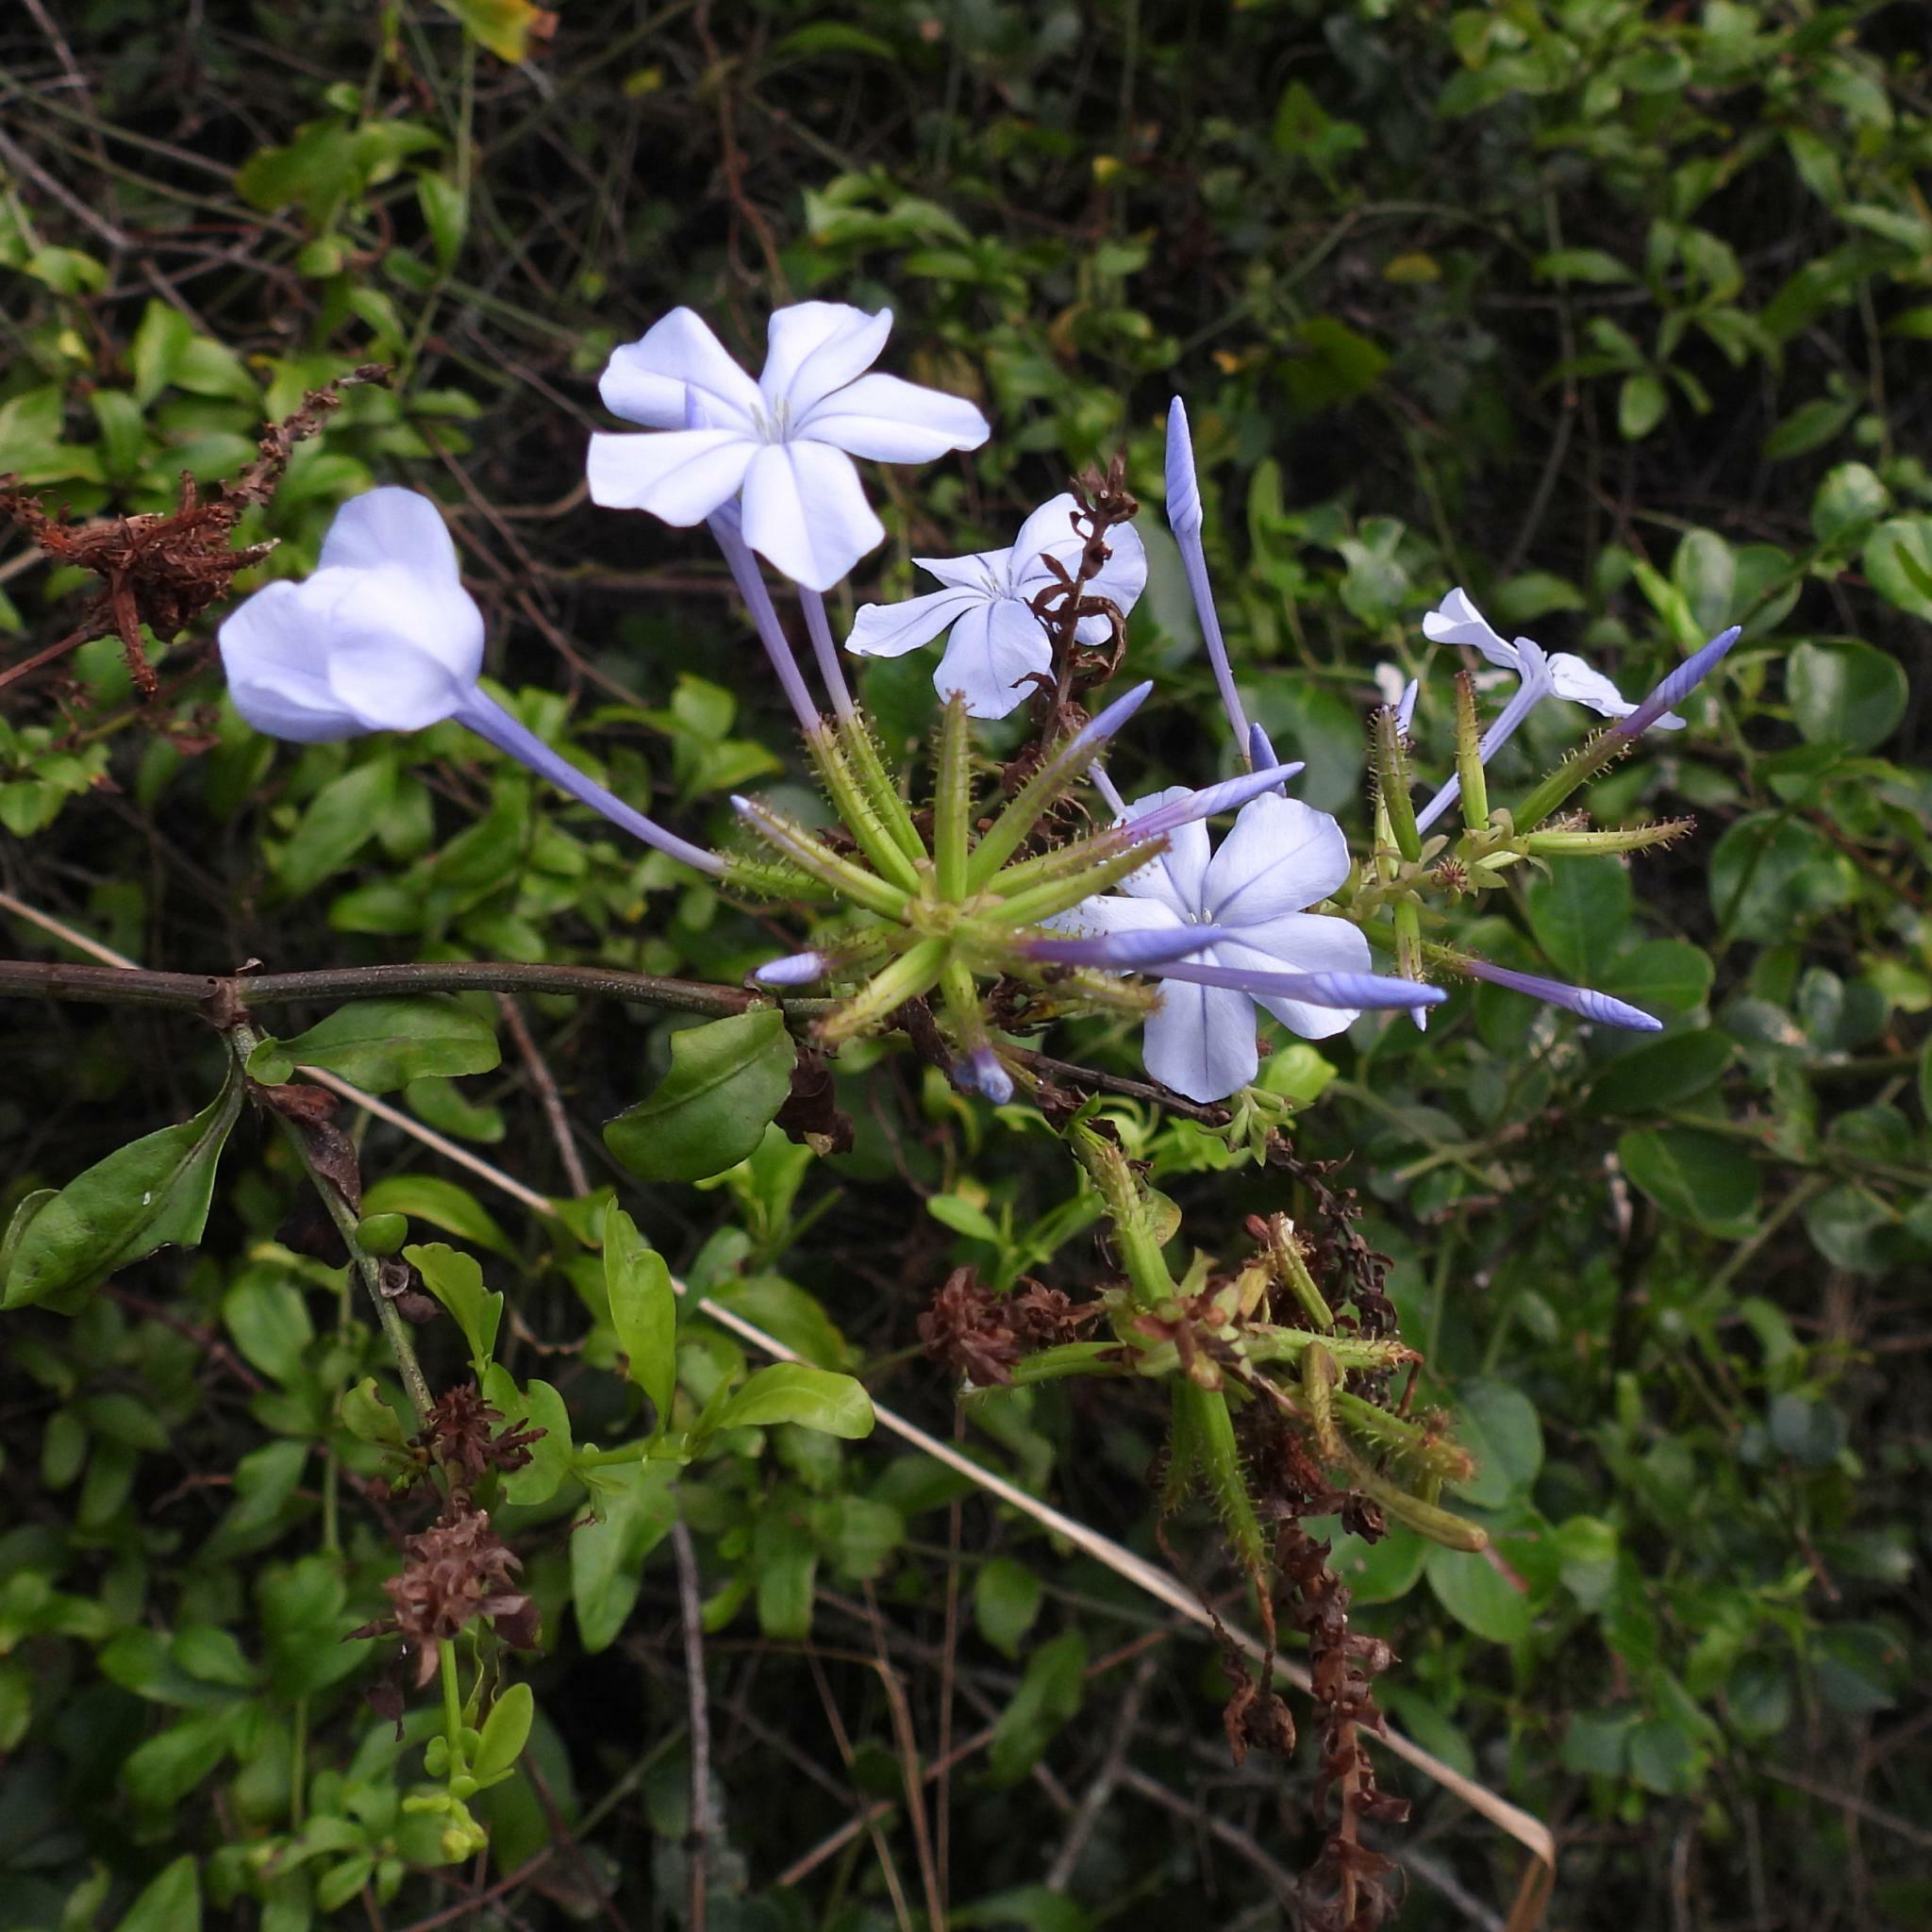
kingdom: Plantae
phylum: Tracheophyta
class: Magnoliopsida
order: Caryophyllales
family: Plumbaginaceae
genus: Plumbago
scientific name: Plumbago auriculata
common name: Cape leadwort
